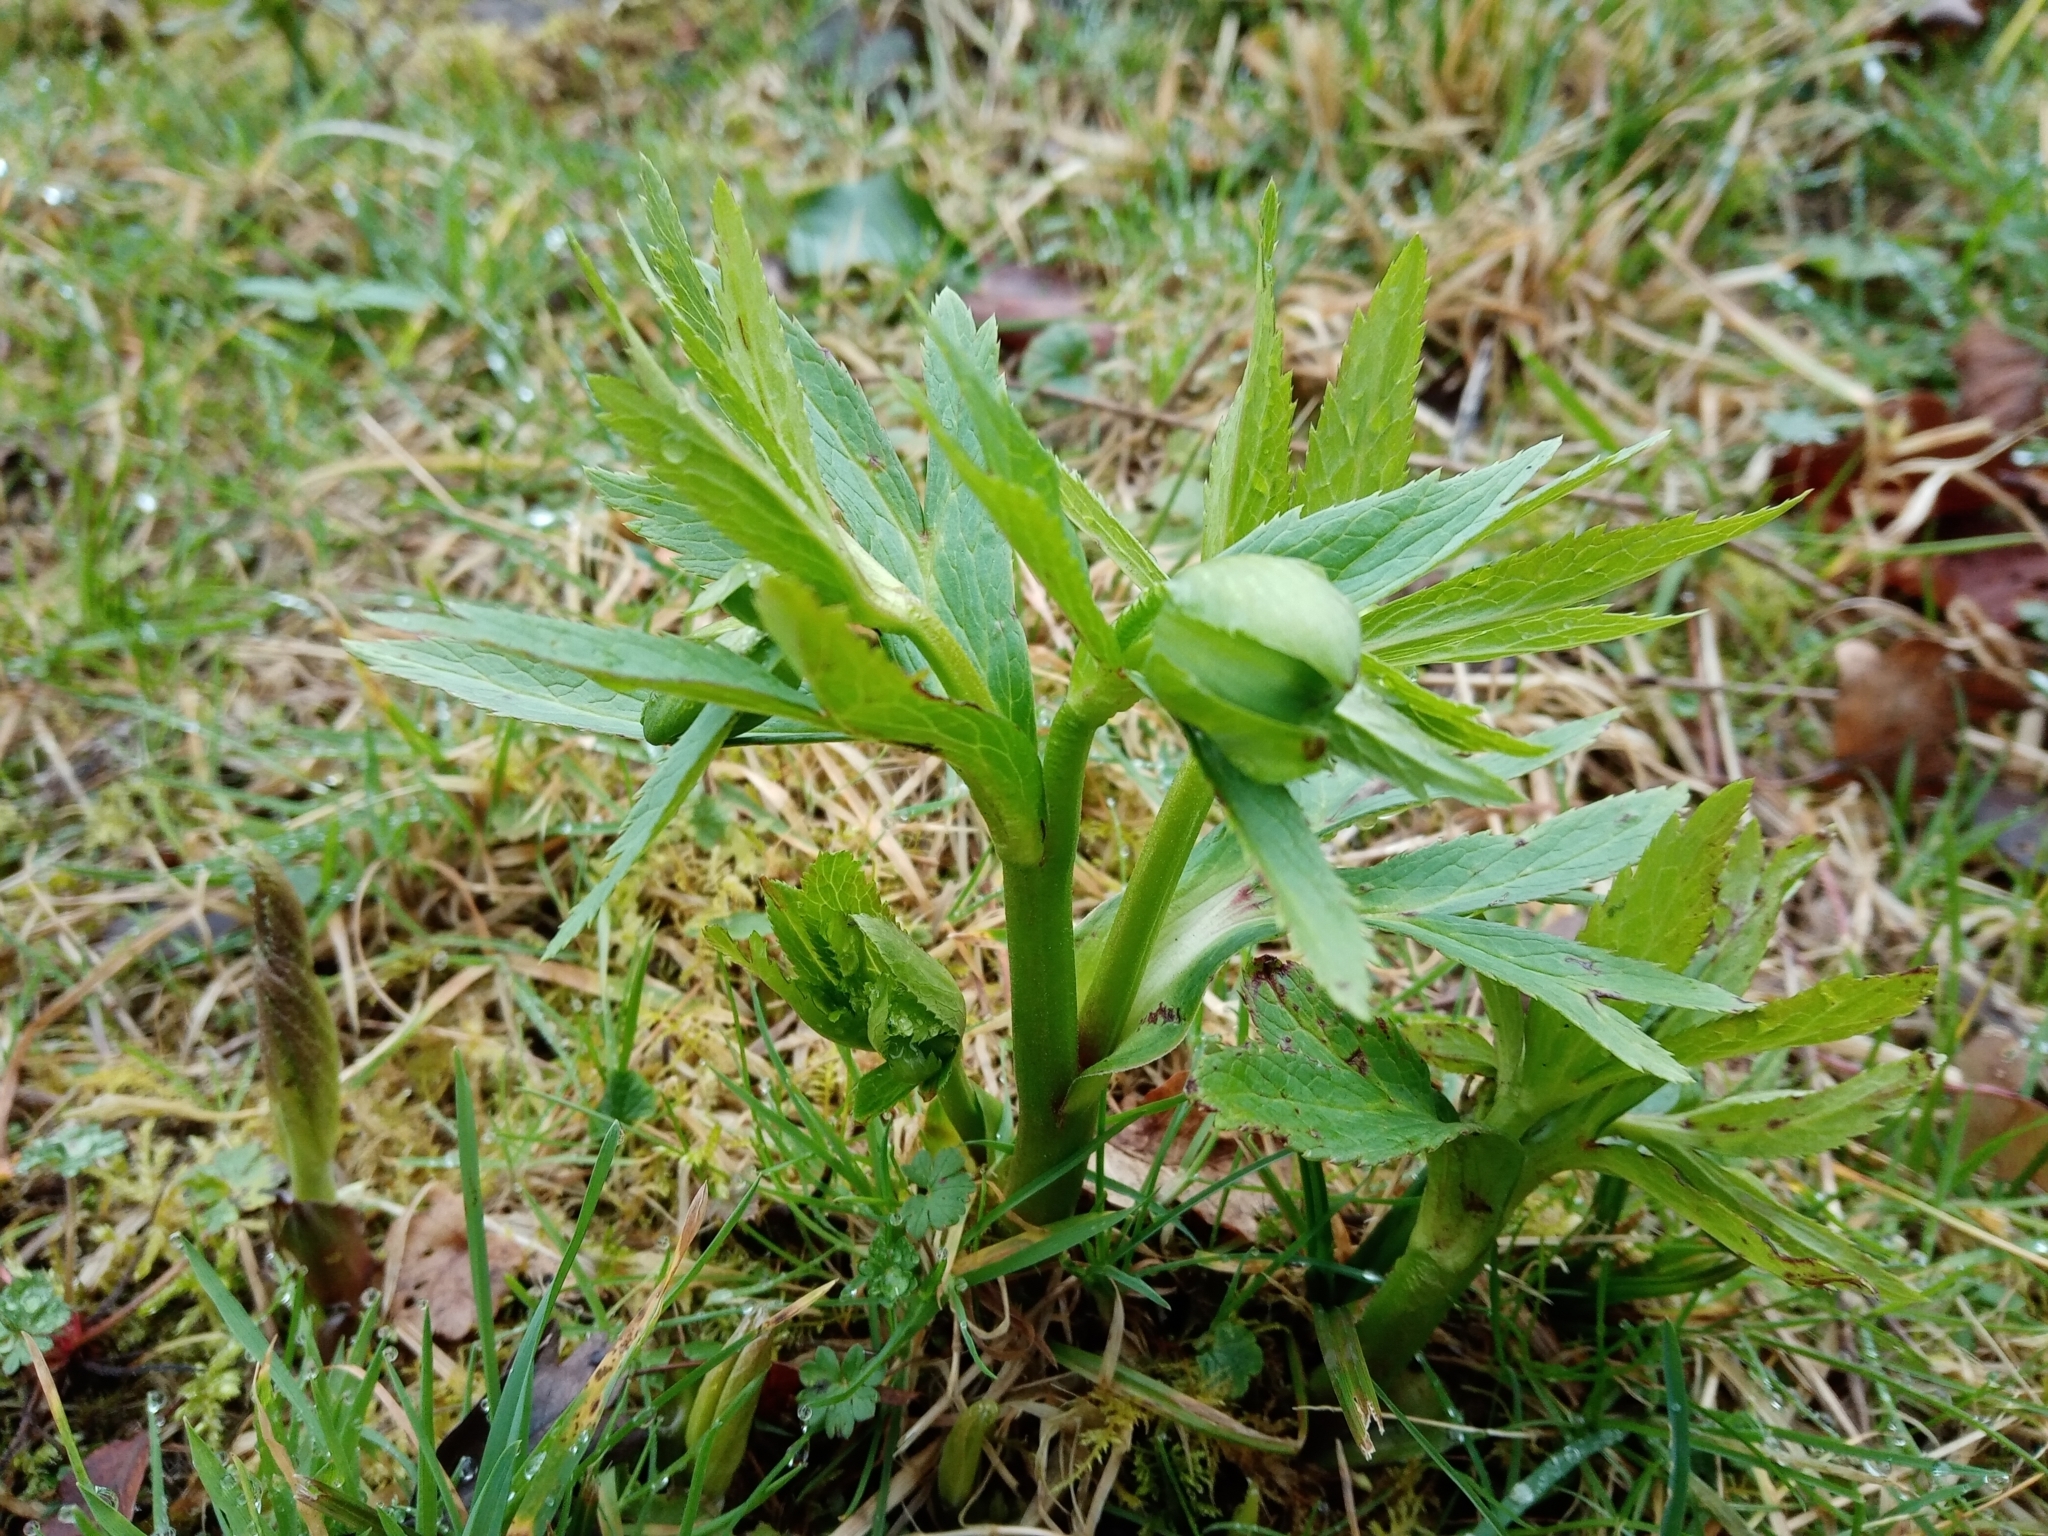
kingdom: Plantae
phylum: Tracheophyta
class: Magnoliopsida
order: Ranunculales
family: Ranunculaceae
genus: Helleborus
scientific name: Helleborus viridis
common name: Green hellebore
